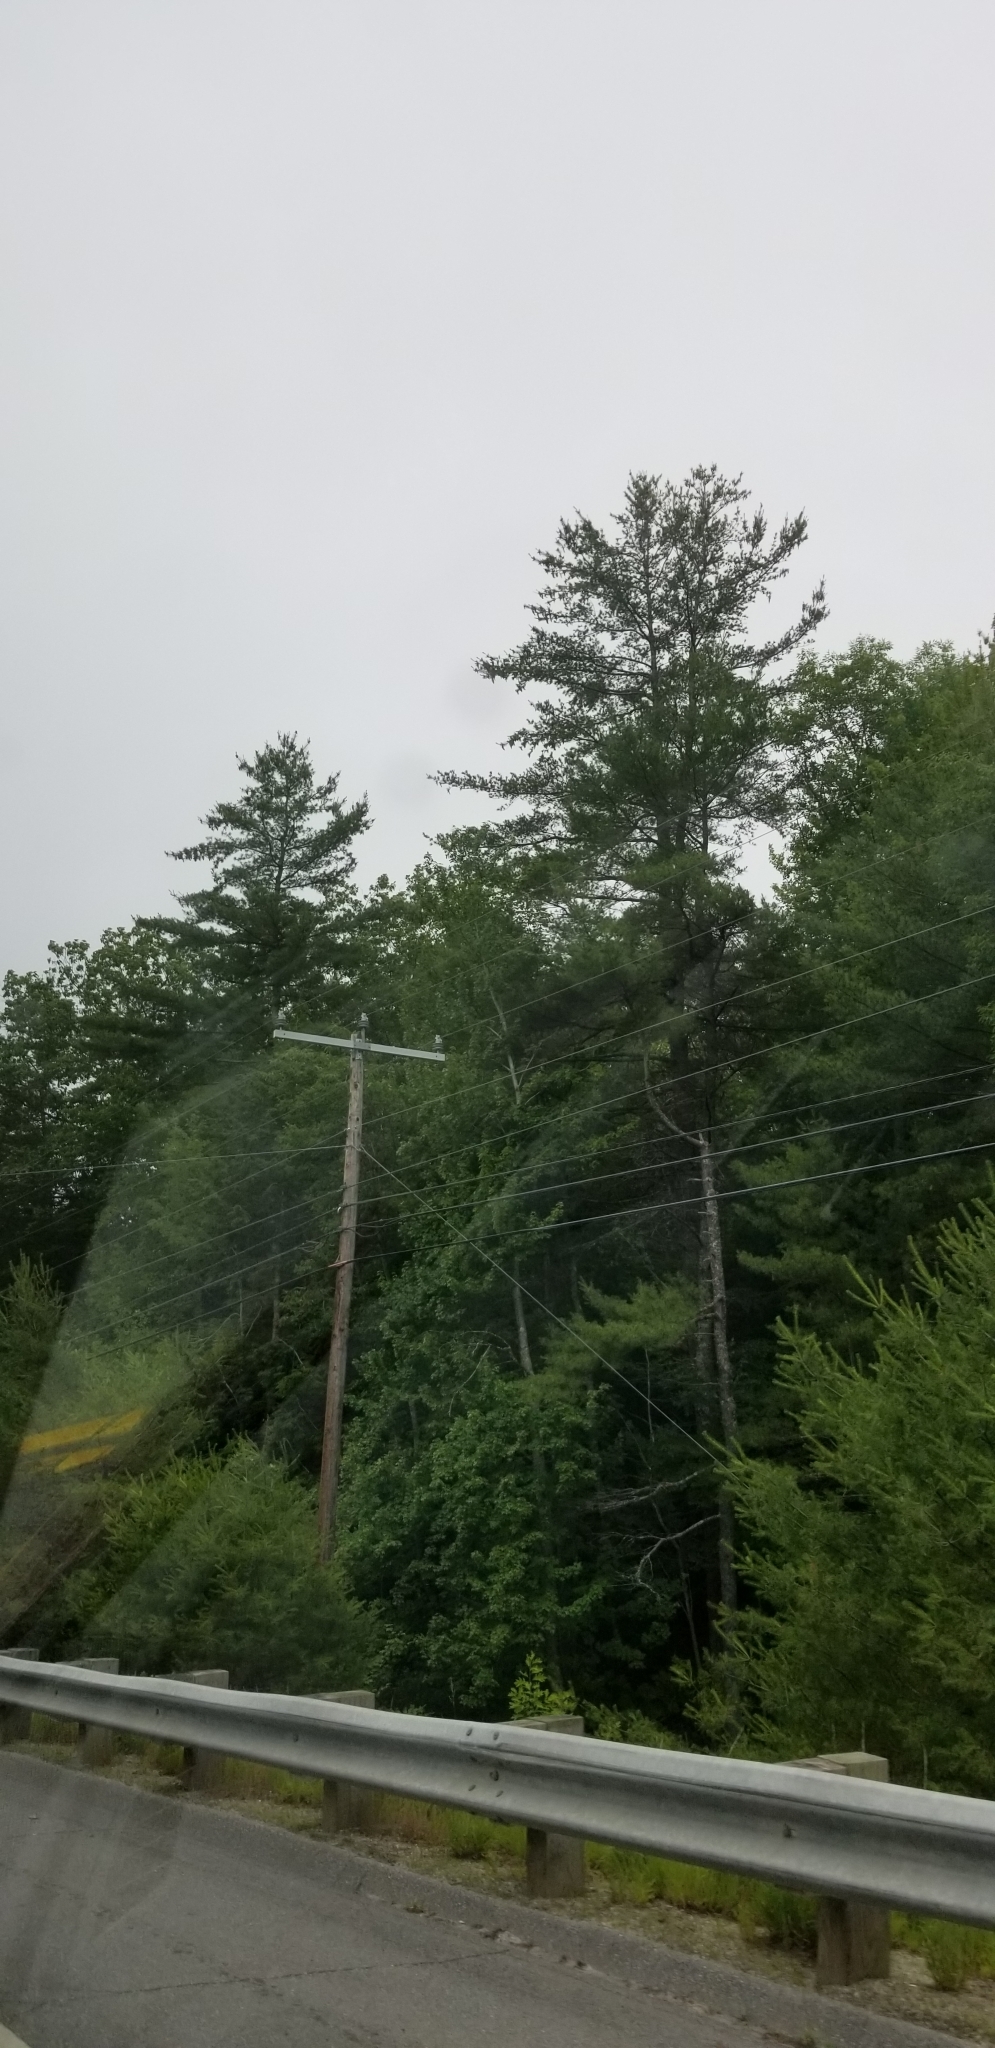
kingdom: Plantae
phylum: Tracheophyta
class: Pinopsida
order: Pinales
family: Pinaceae
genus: Pinus
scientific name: Pinus strobus
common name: Weymouth pine
